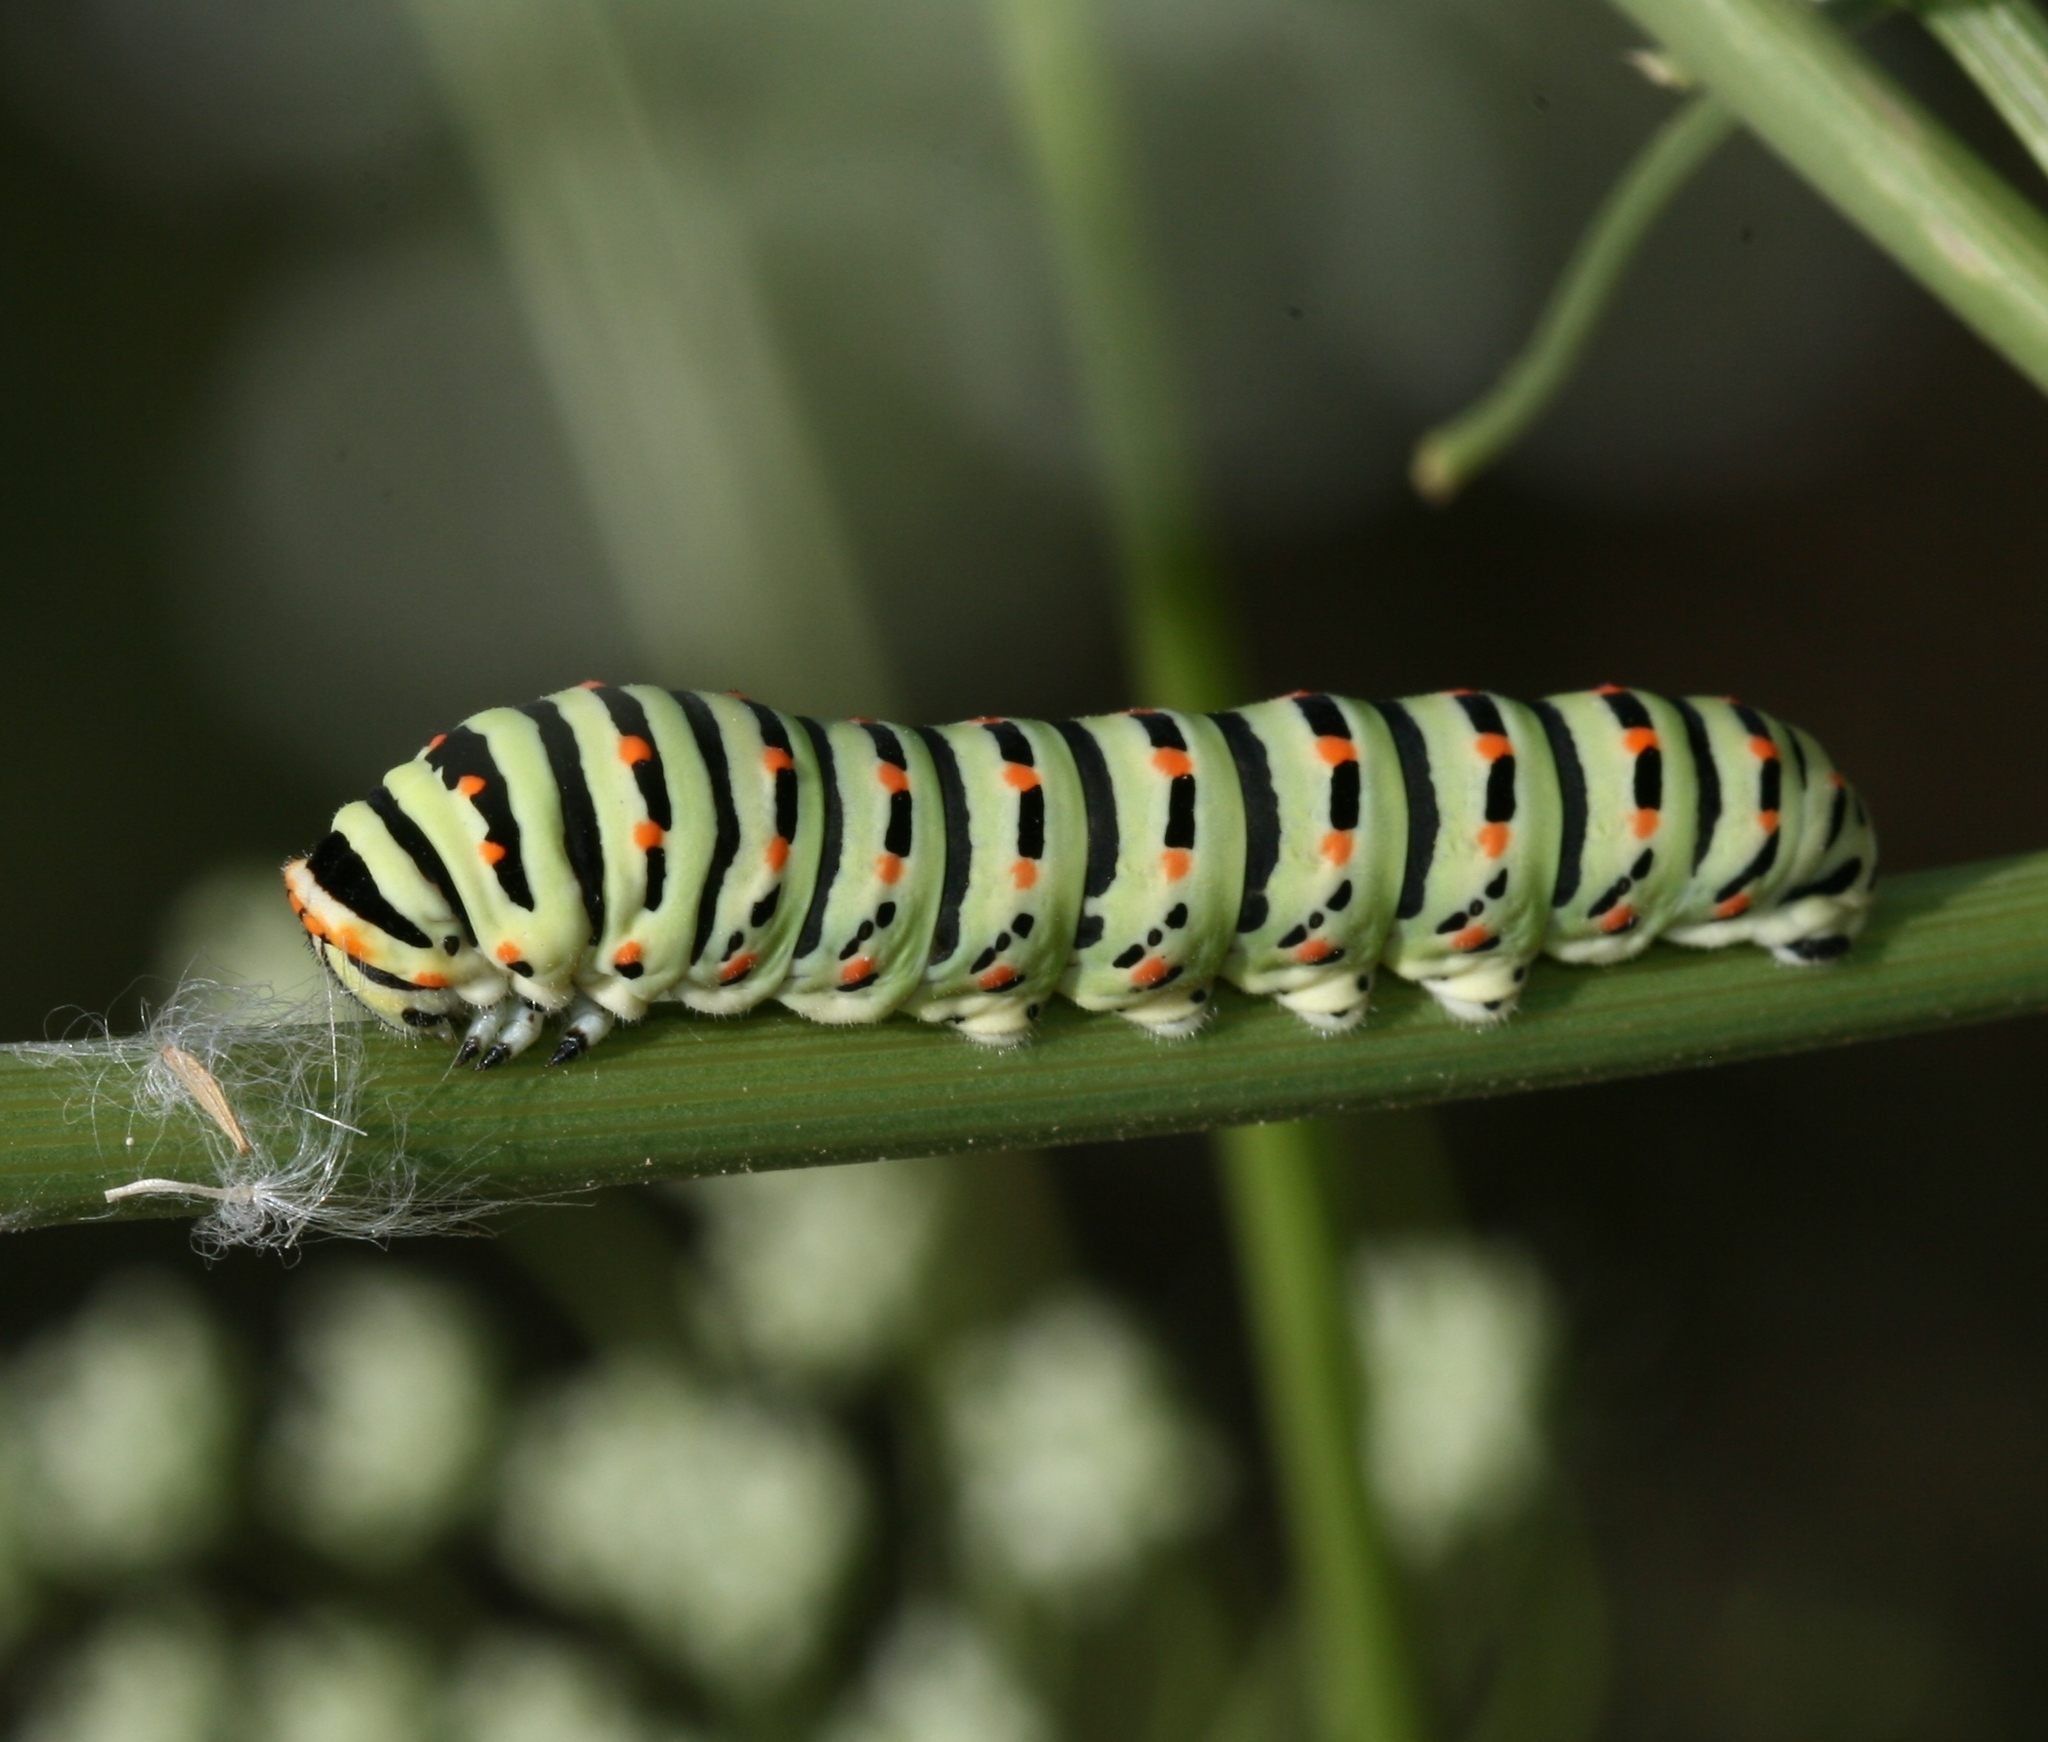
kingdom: Animalia
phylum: Arthropoda
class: Insecta
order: Lepidoptera
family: Papilionidae
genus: Papilio
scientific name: Papilio machaon
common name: Swallowtail
